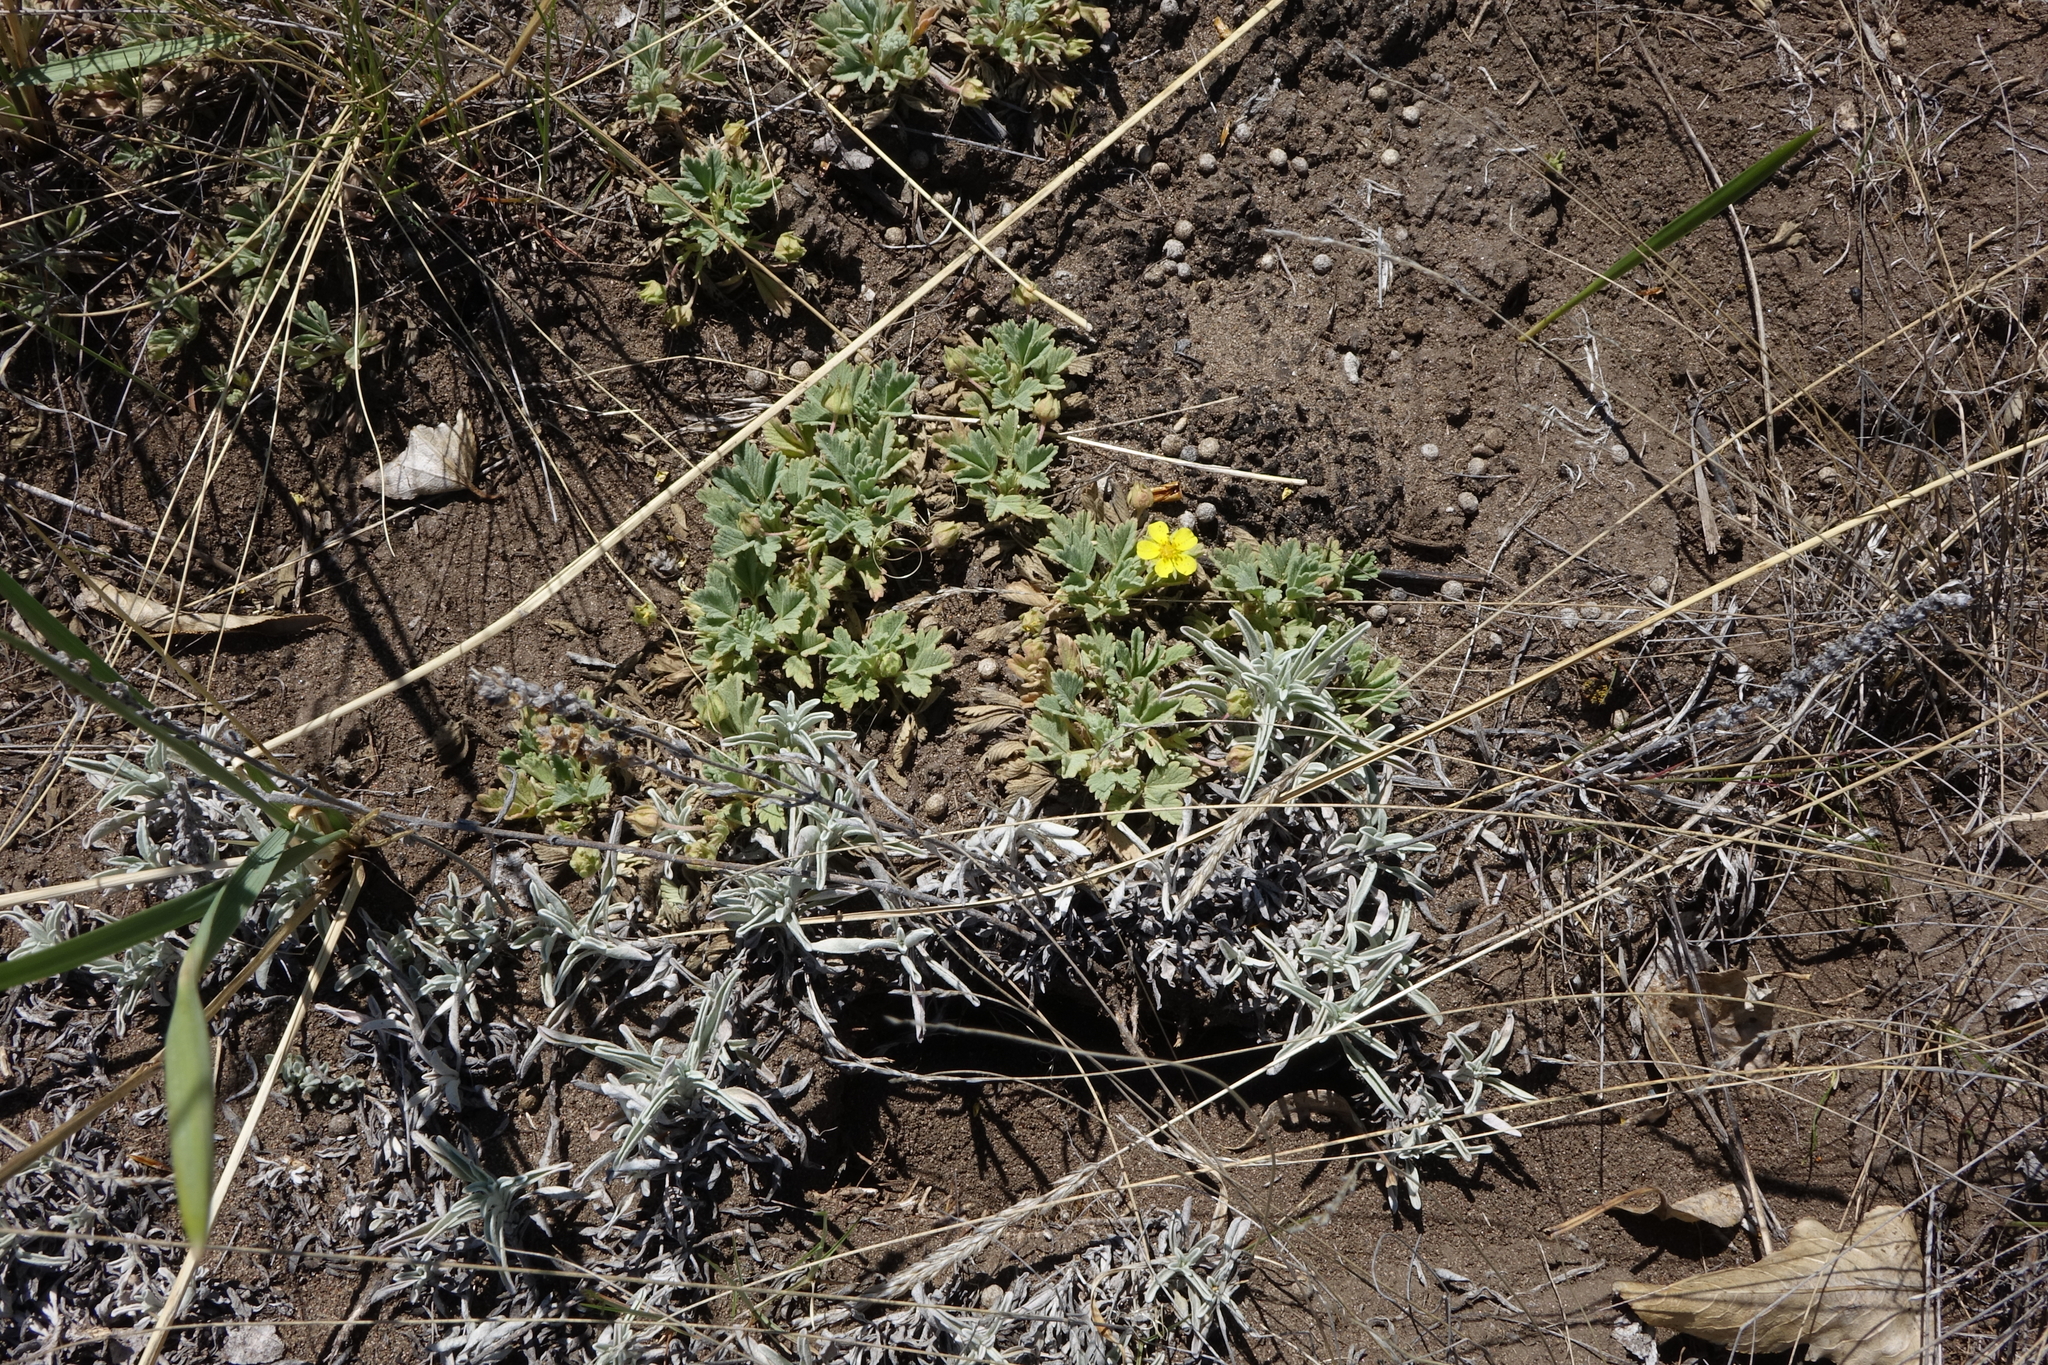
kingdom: Plantae
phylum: Tracheophyta
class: Magnoliopsida
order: Rosales
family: Rosaceae
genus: Potentilla
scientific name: Potentilla acaulis
